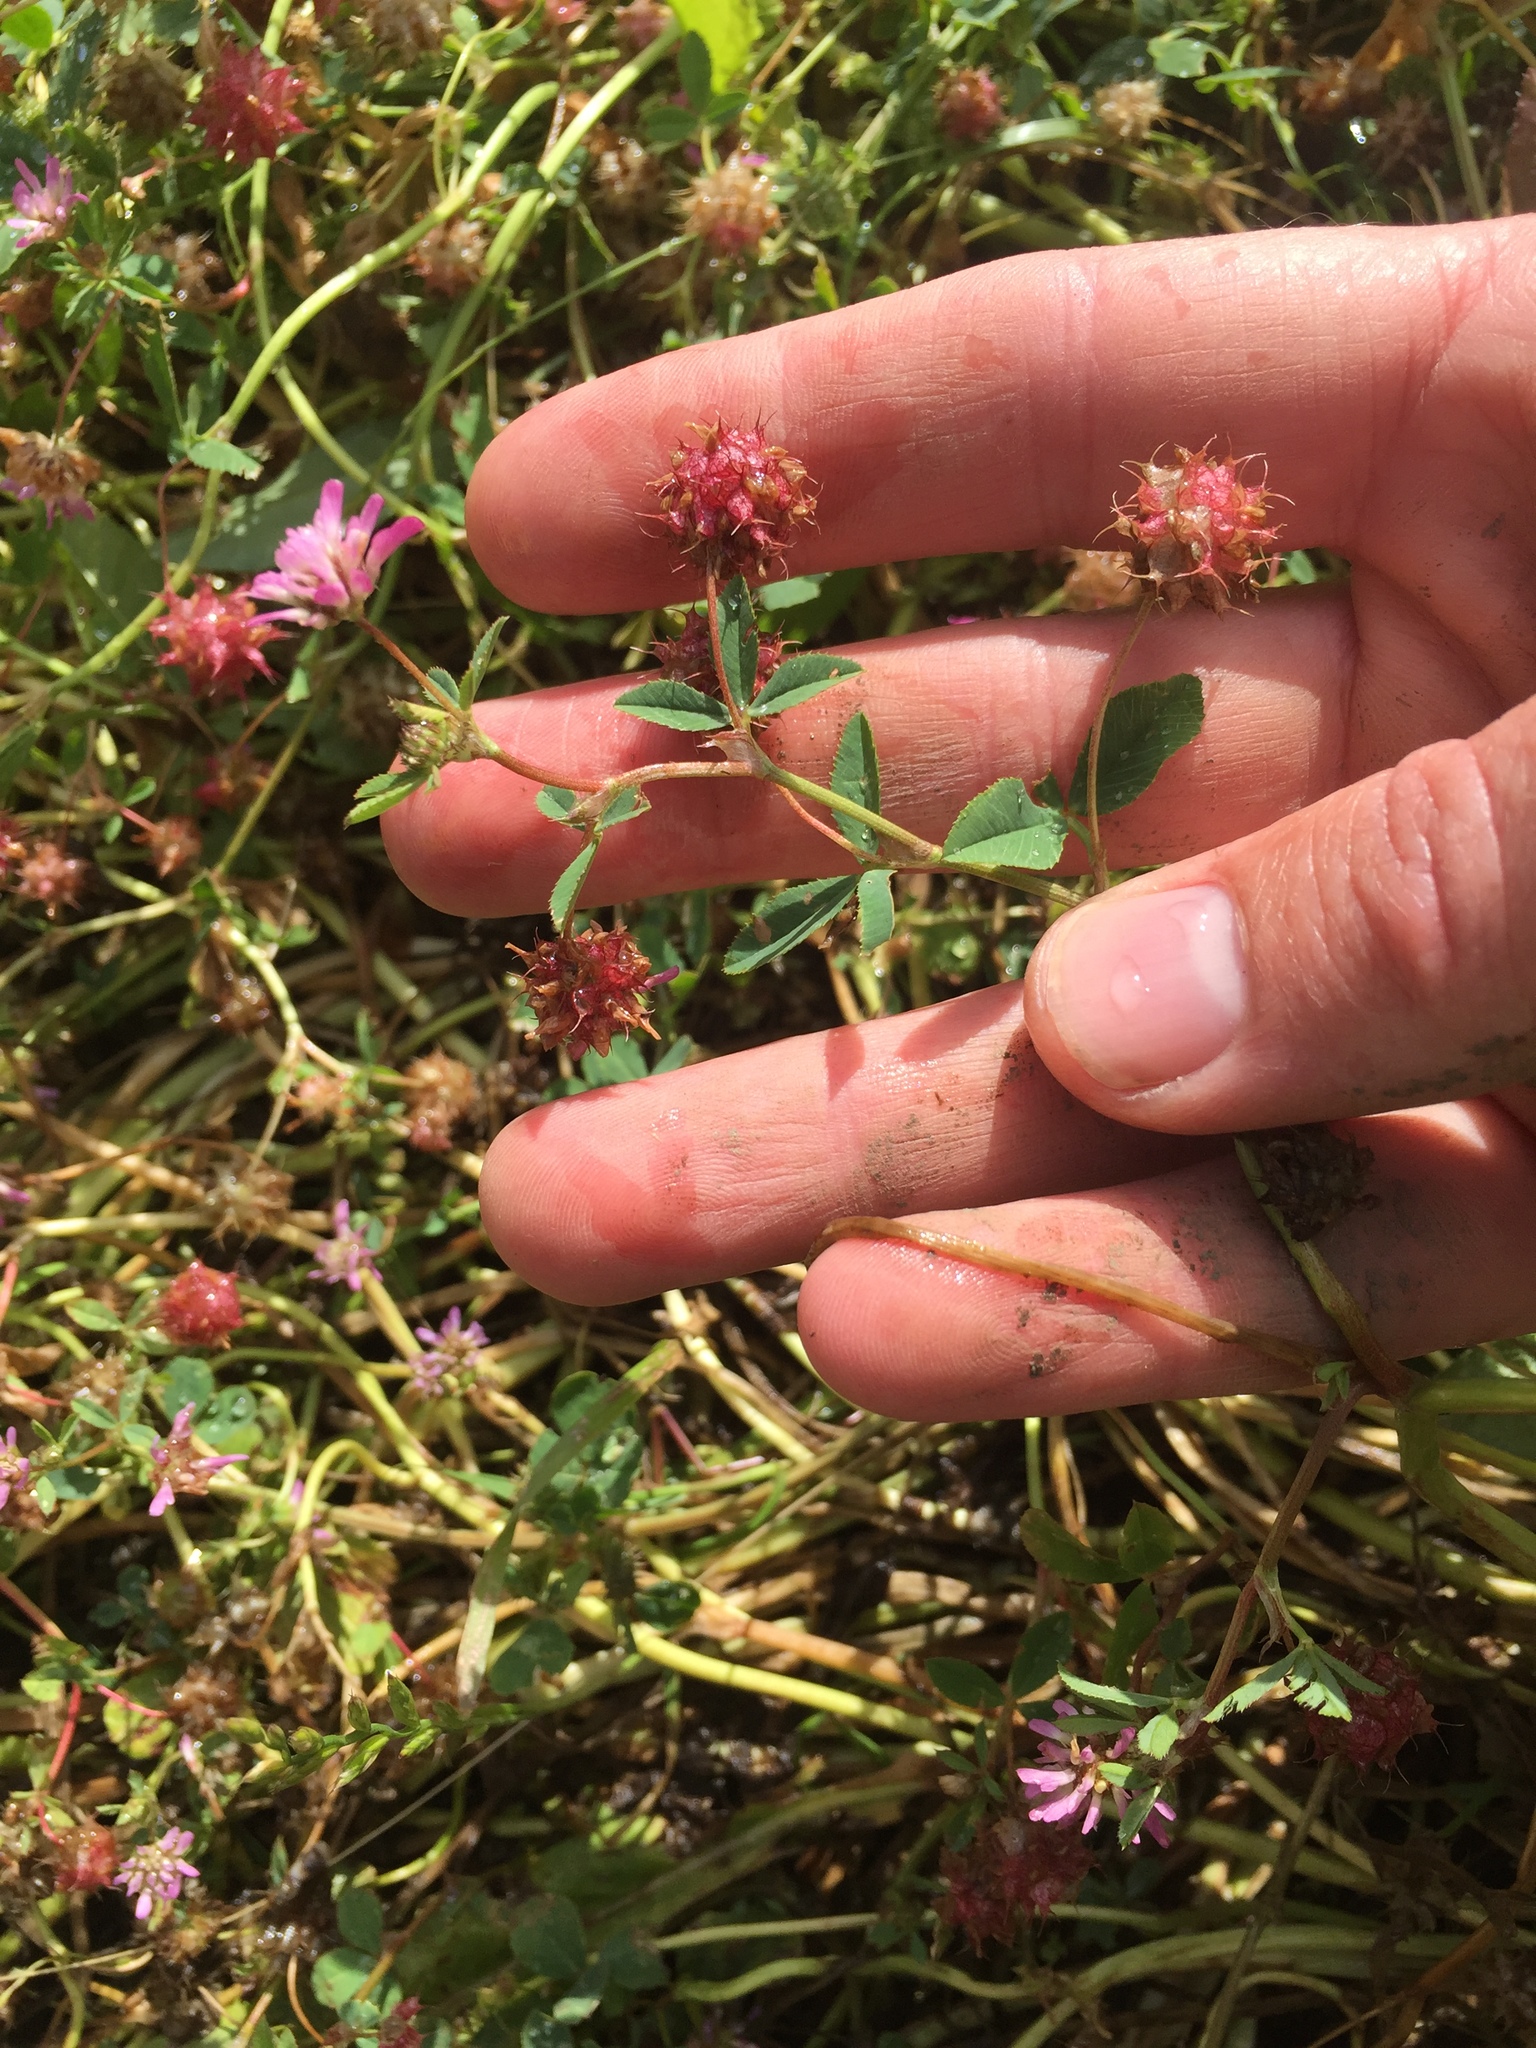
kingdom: Plantae
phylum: Tracheophyta
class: Magnoliopsida
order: Fabales
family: Fabaceae
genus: Trifolium
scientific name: Trifolium resupinatum
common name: Reversed clover
